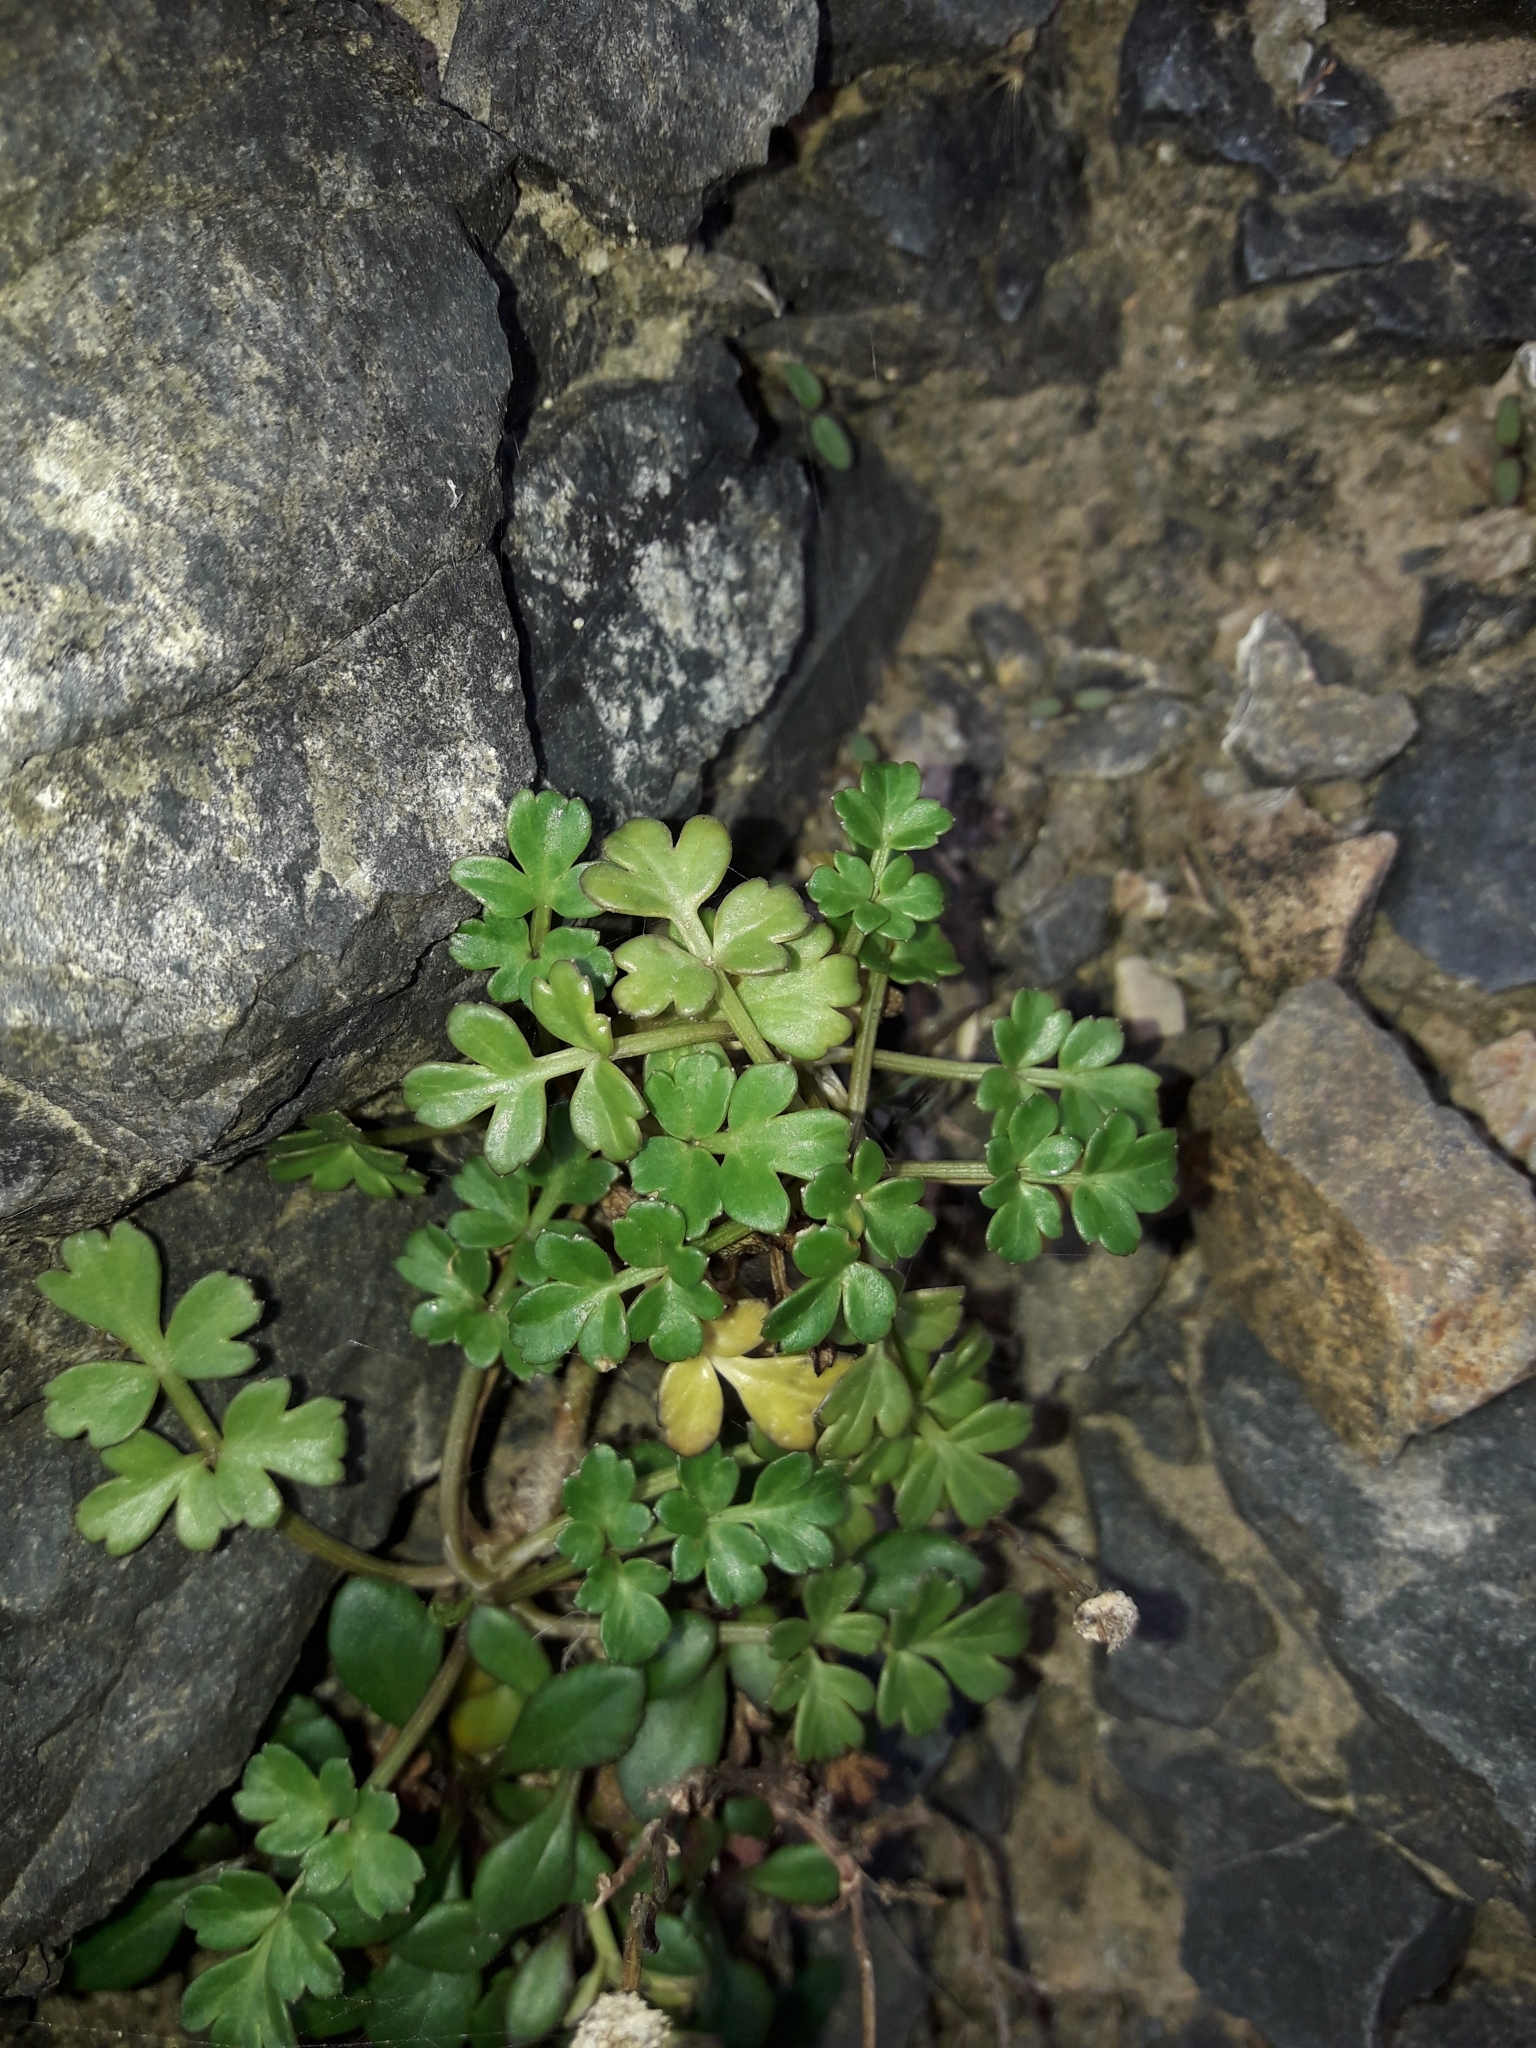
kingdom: Plantae
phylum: Tracheophyta
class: Magnoliopsida
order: Apiales
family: Apiaceae
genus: Apium
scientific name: Apium prostratum
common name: Prostrate marshwort
